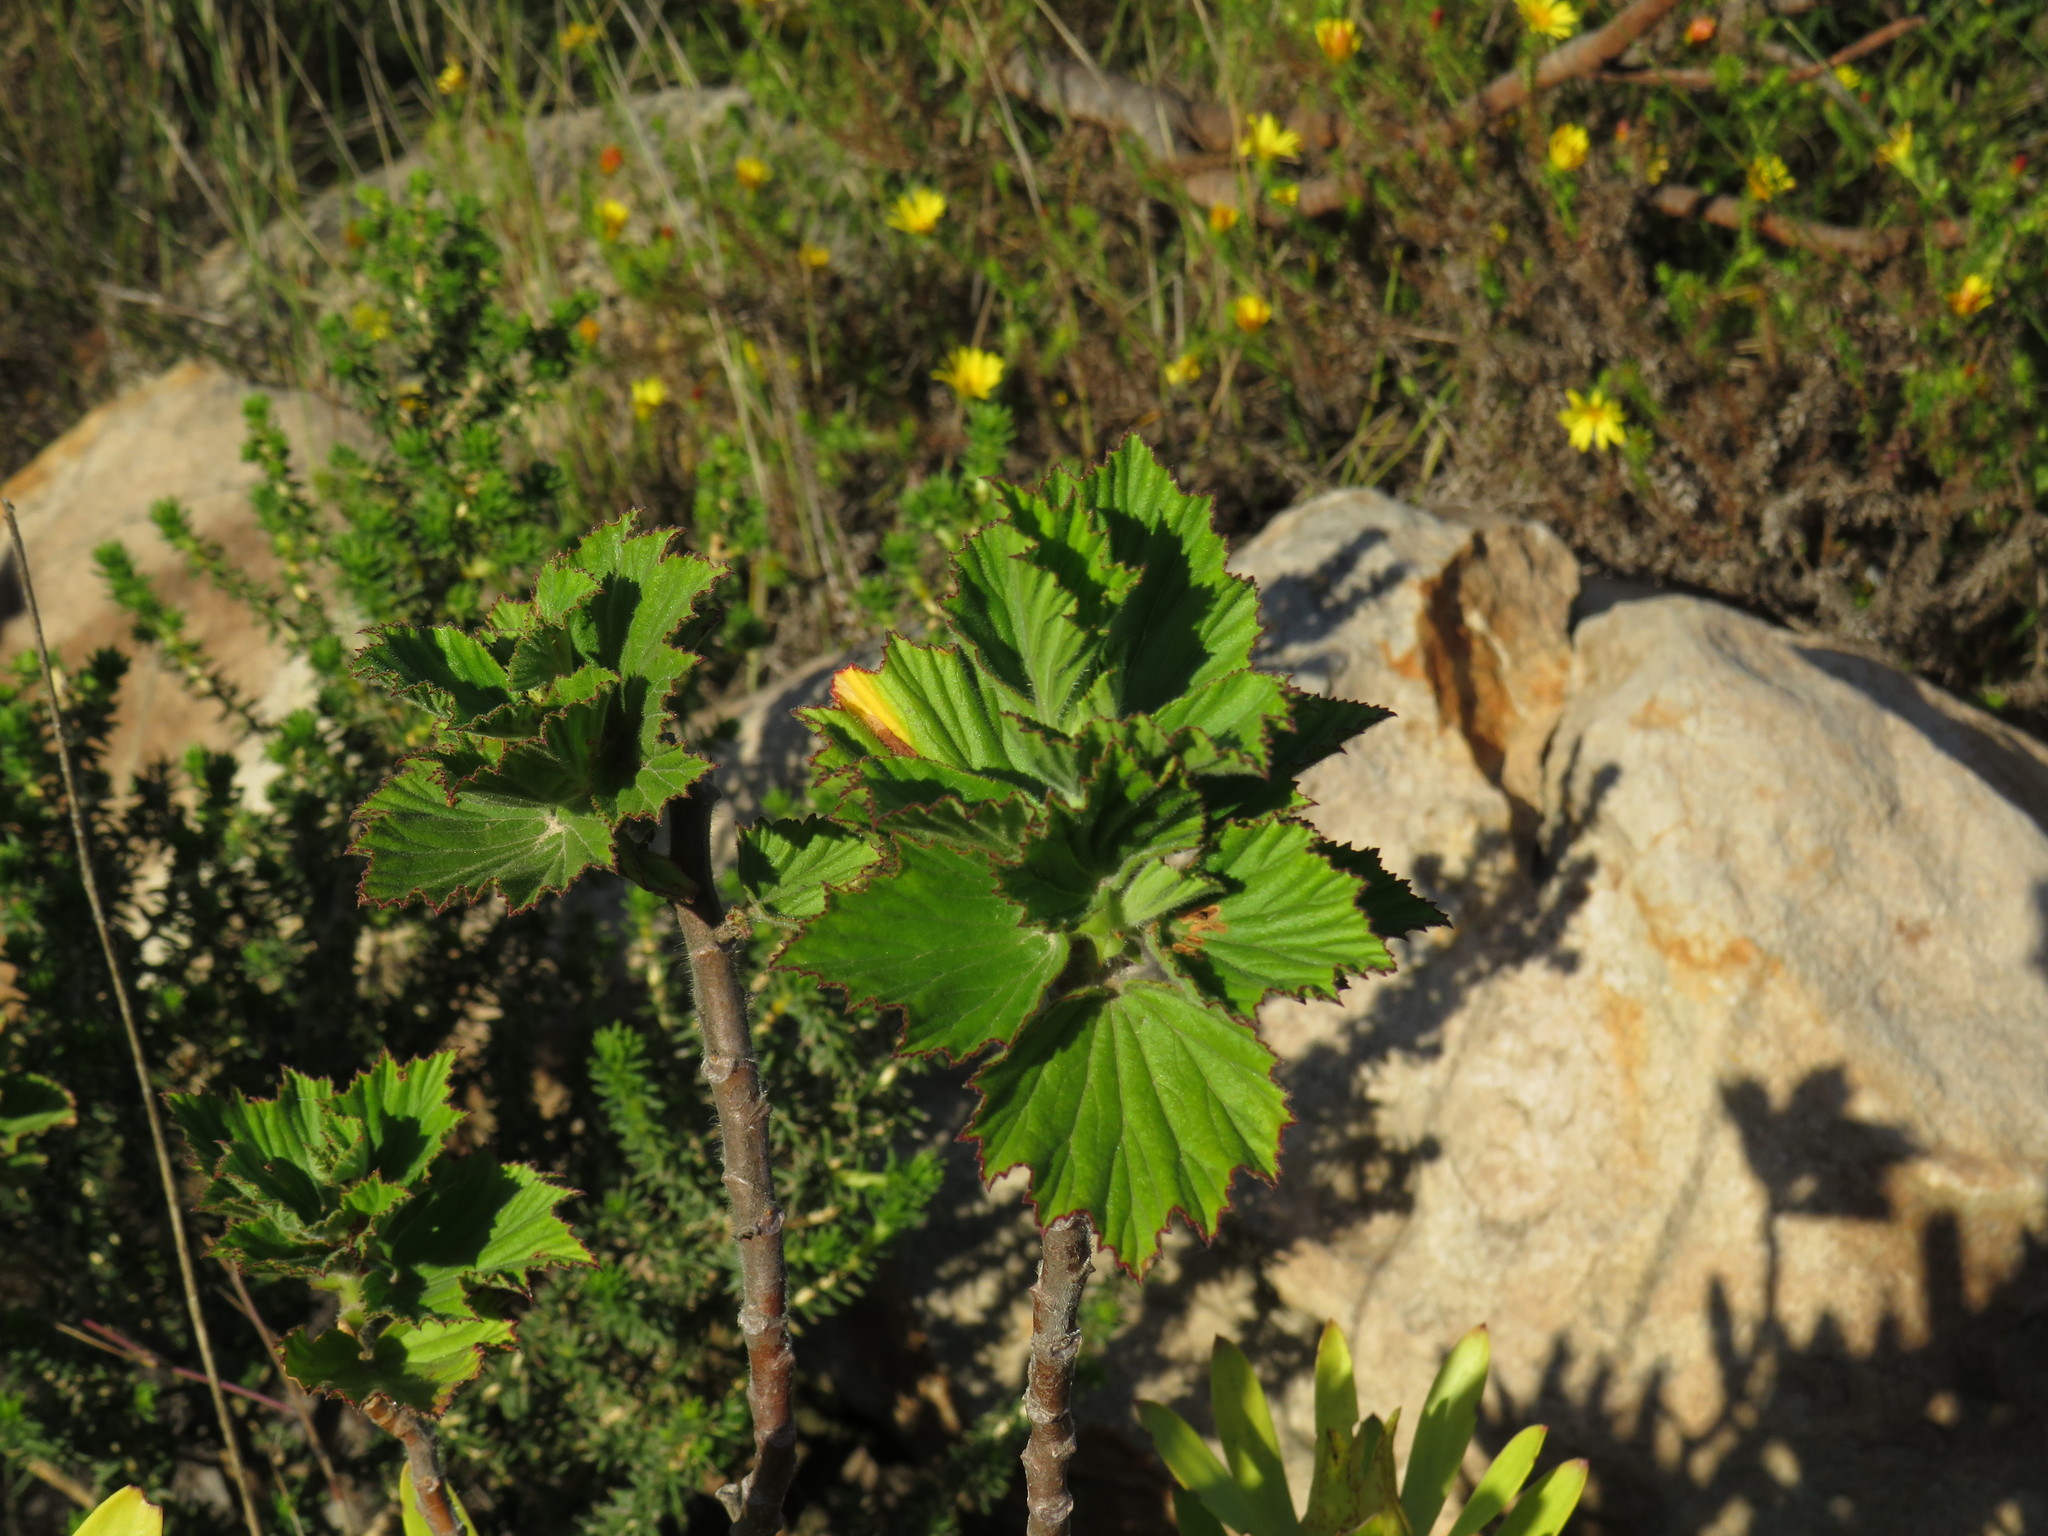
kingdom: Plantae
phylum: Tracheophyta
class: Magnoliopsida
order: Geraniales
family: Geraniaceae
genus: Pelargonium
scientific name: Pelargonium cucullatum
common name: Tree pelargonium
